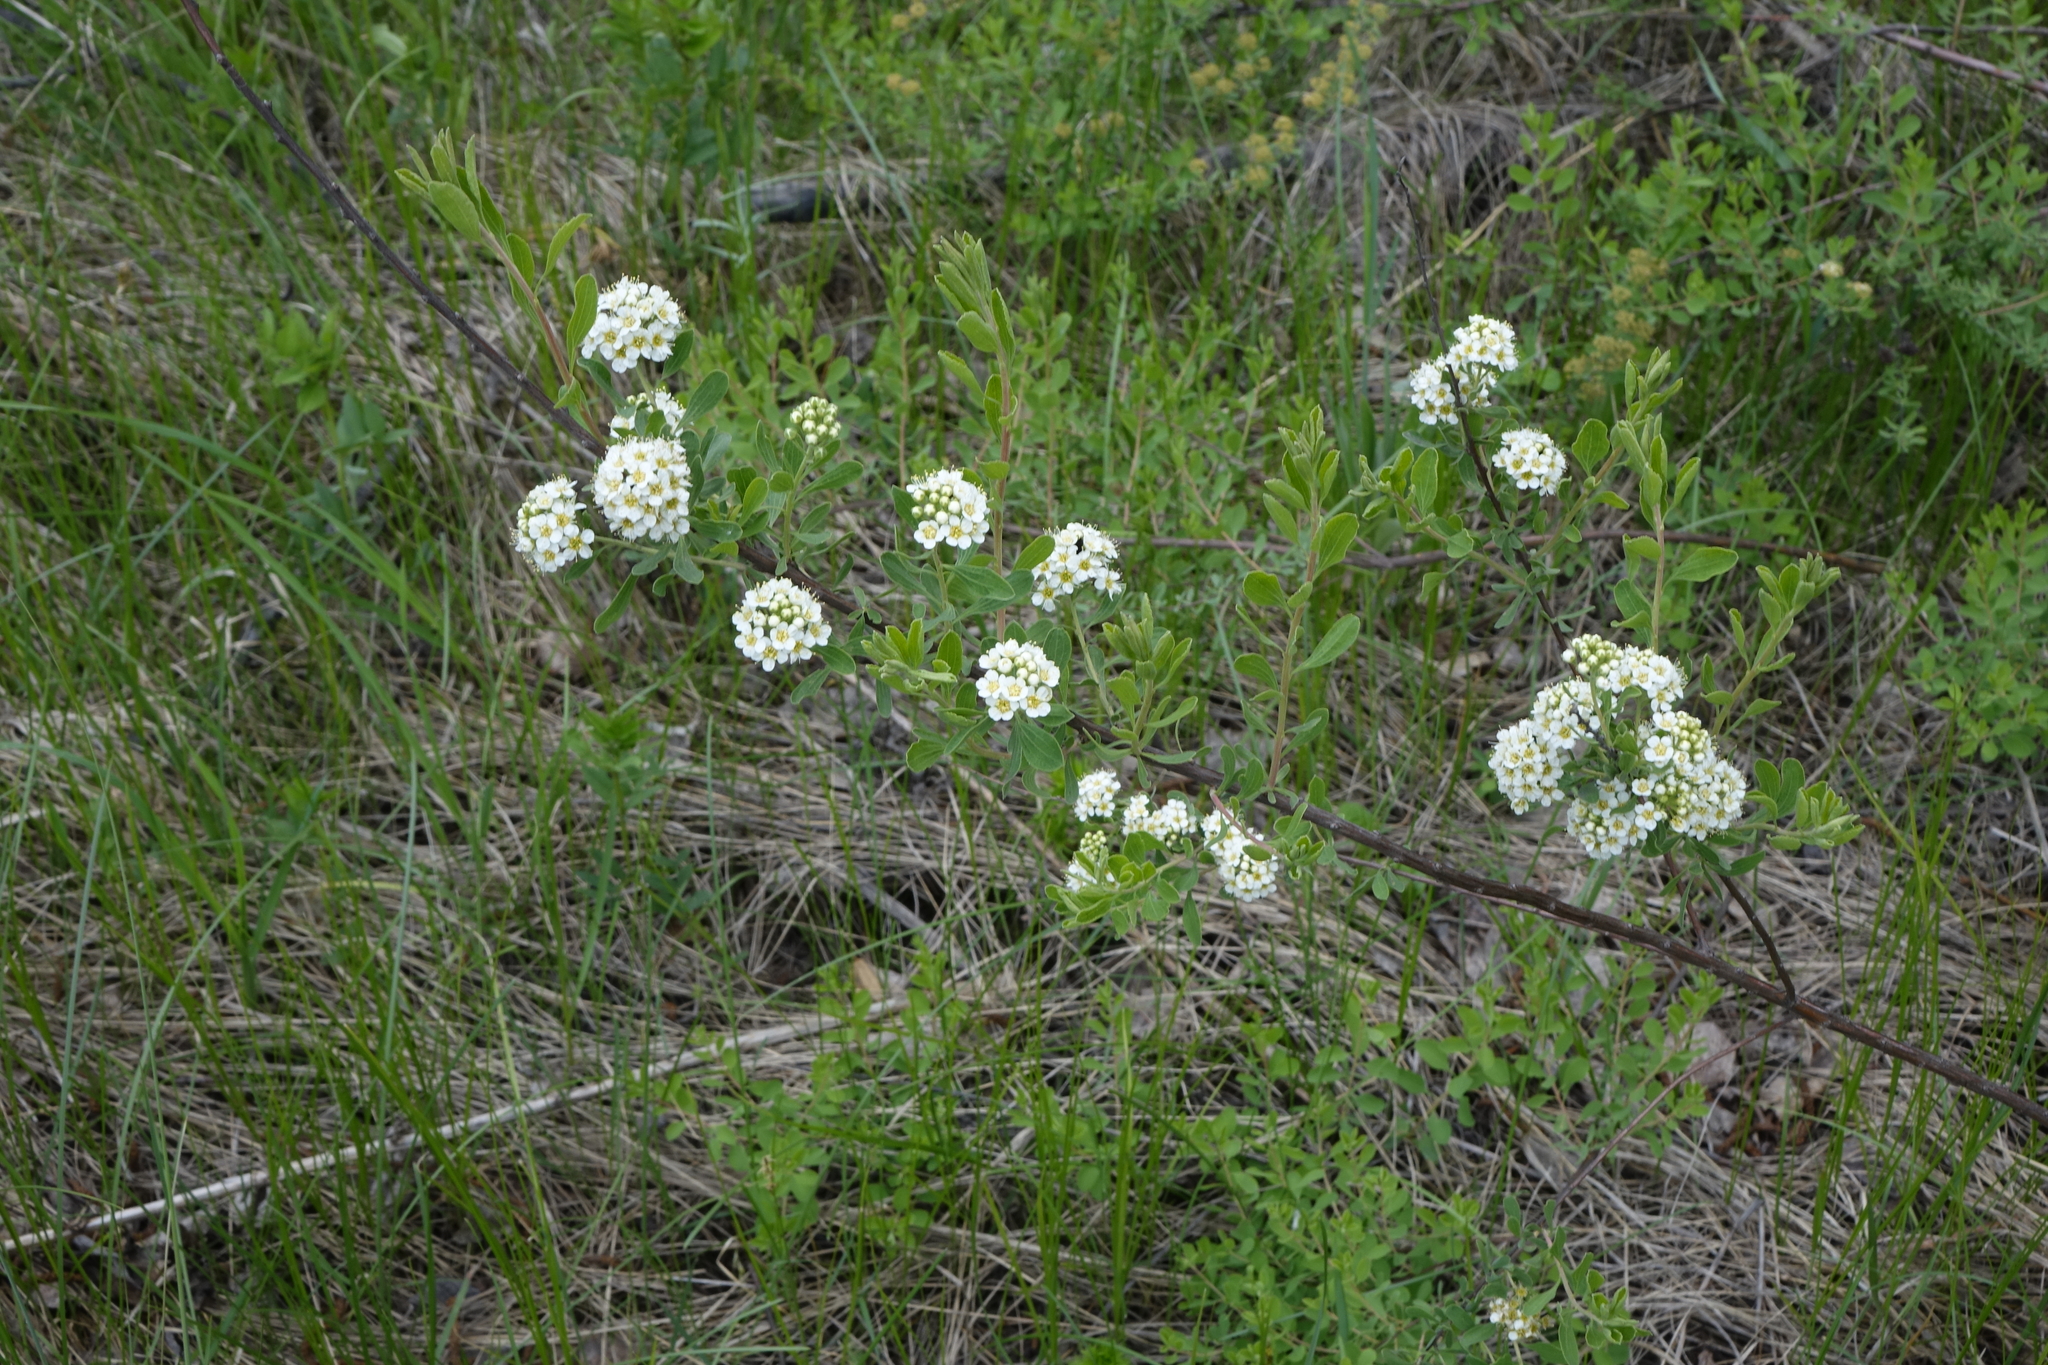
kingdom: Plantae
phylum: Tracheophyta
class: Magnoliopsida
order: Rosales
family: Rosaceae
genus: Spiraea
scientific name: Spiraea crenata
